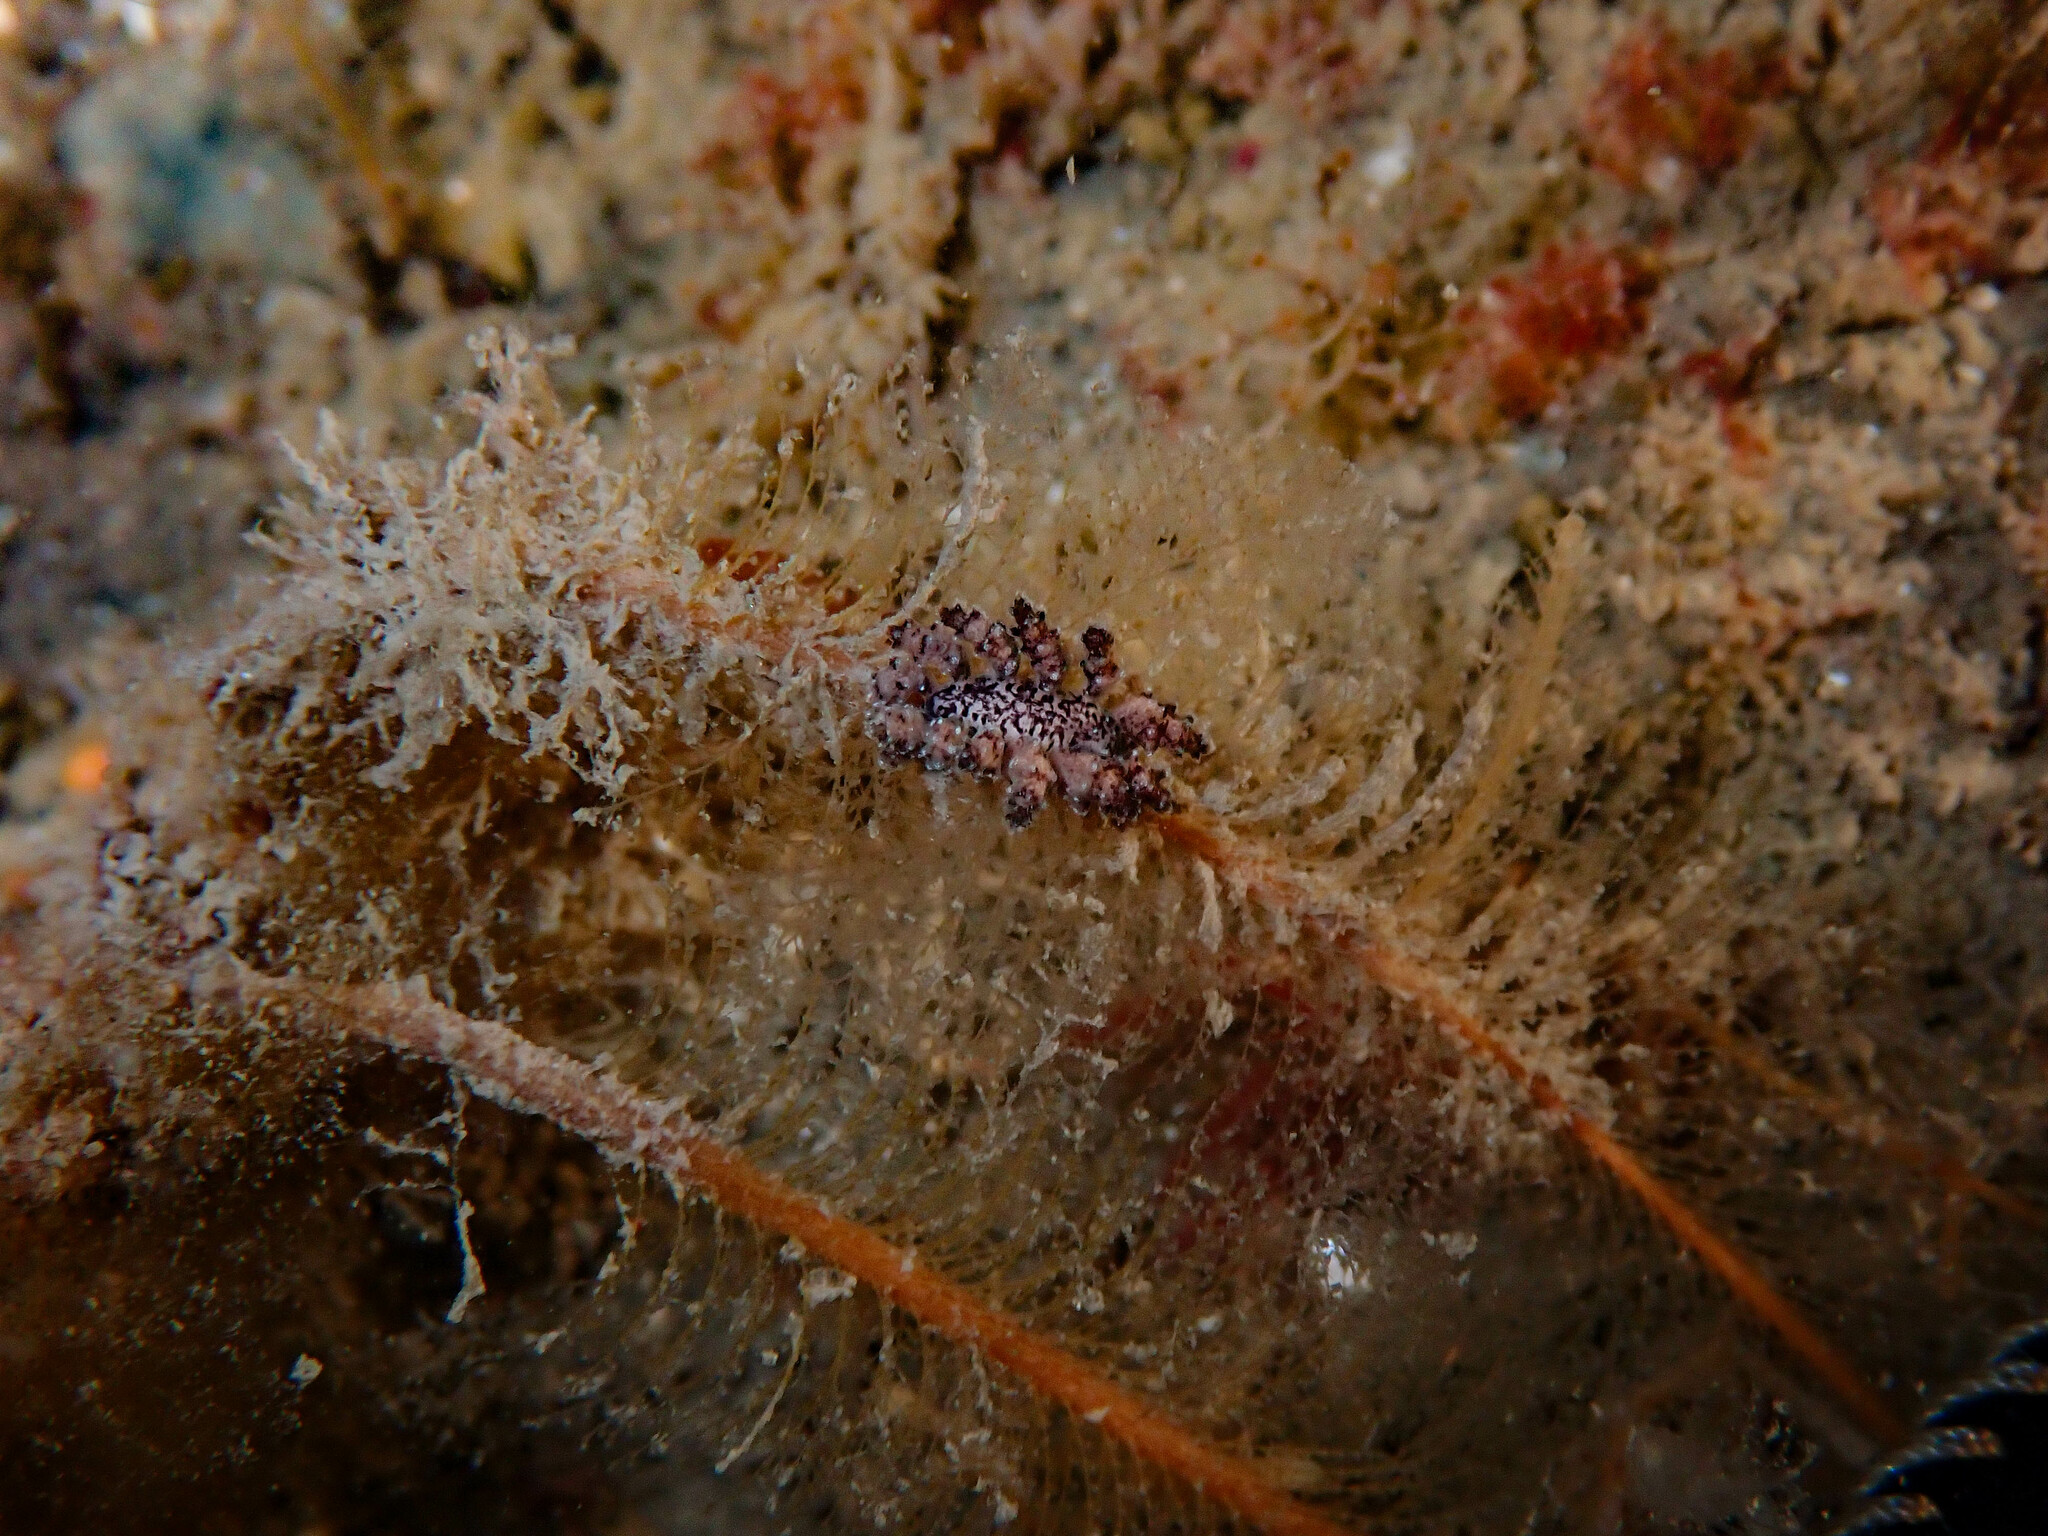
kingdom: Animalia
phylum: Mollusca
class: Gastropoda
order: Nudibranchia
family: Dotidae
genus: Doto
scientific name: Doto cuspidata
